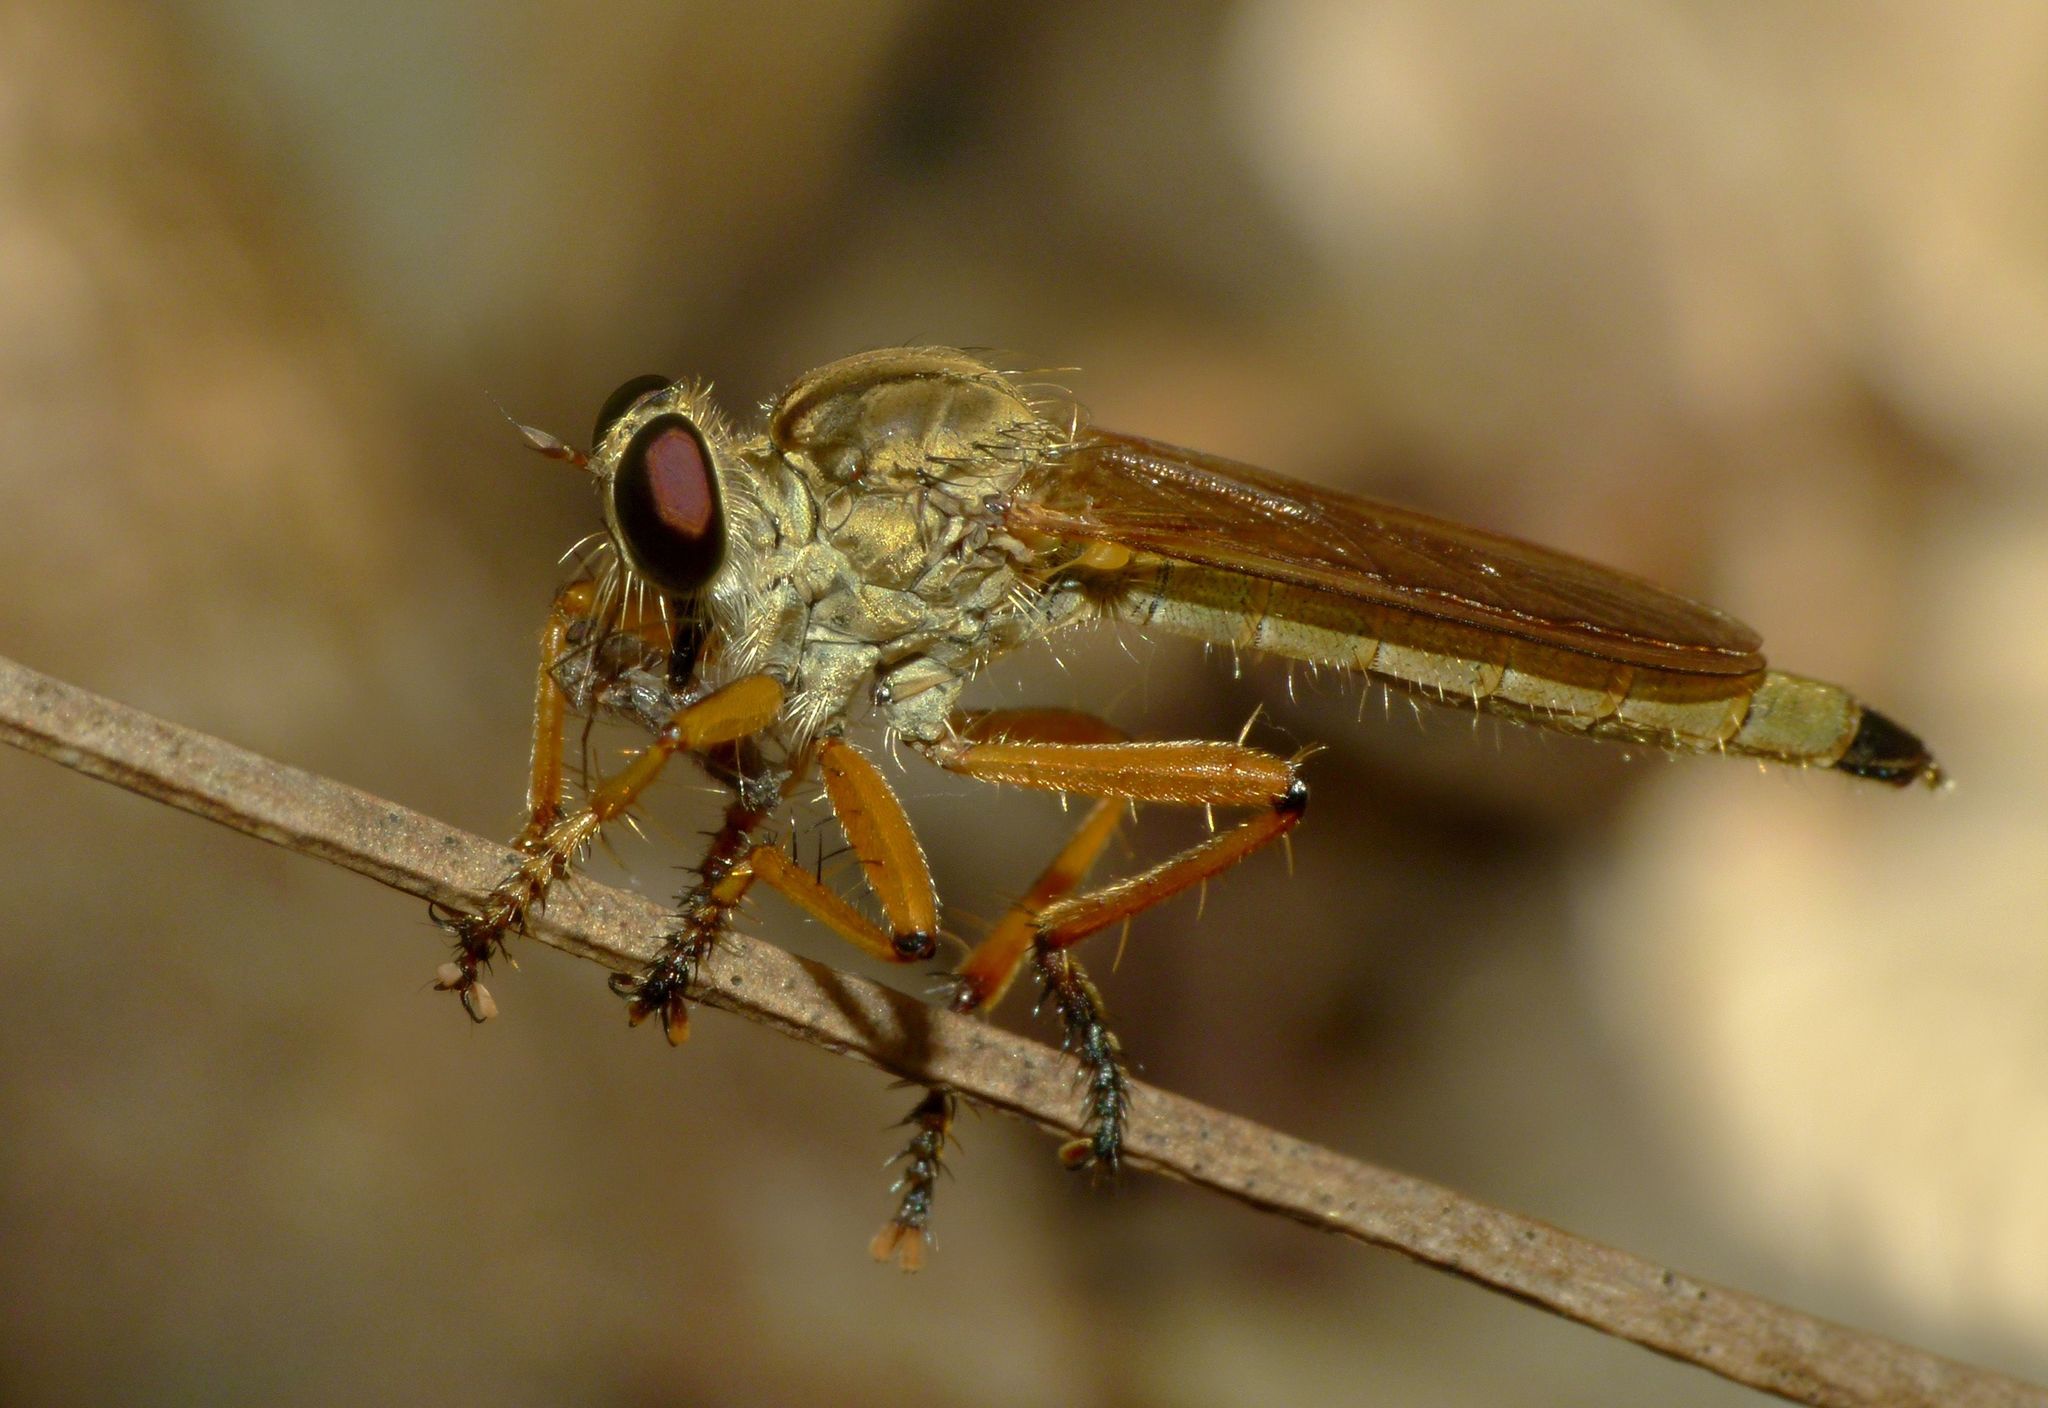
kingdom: Animalia
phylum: Arthropoda
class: Insecta
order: Diptera
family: Asilidae
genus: Zosteria
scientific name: Zosteria fulvipubescens
